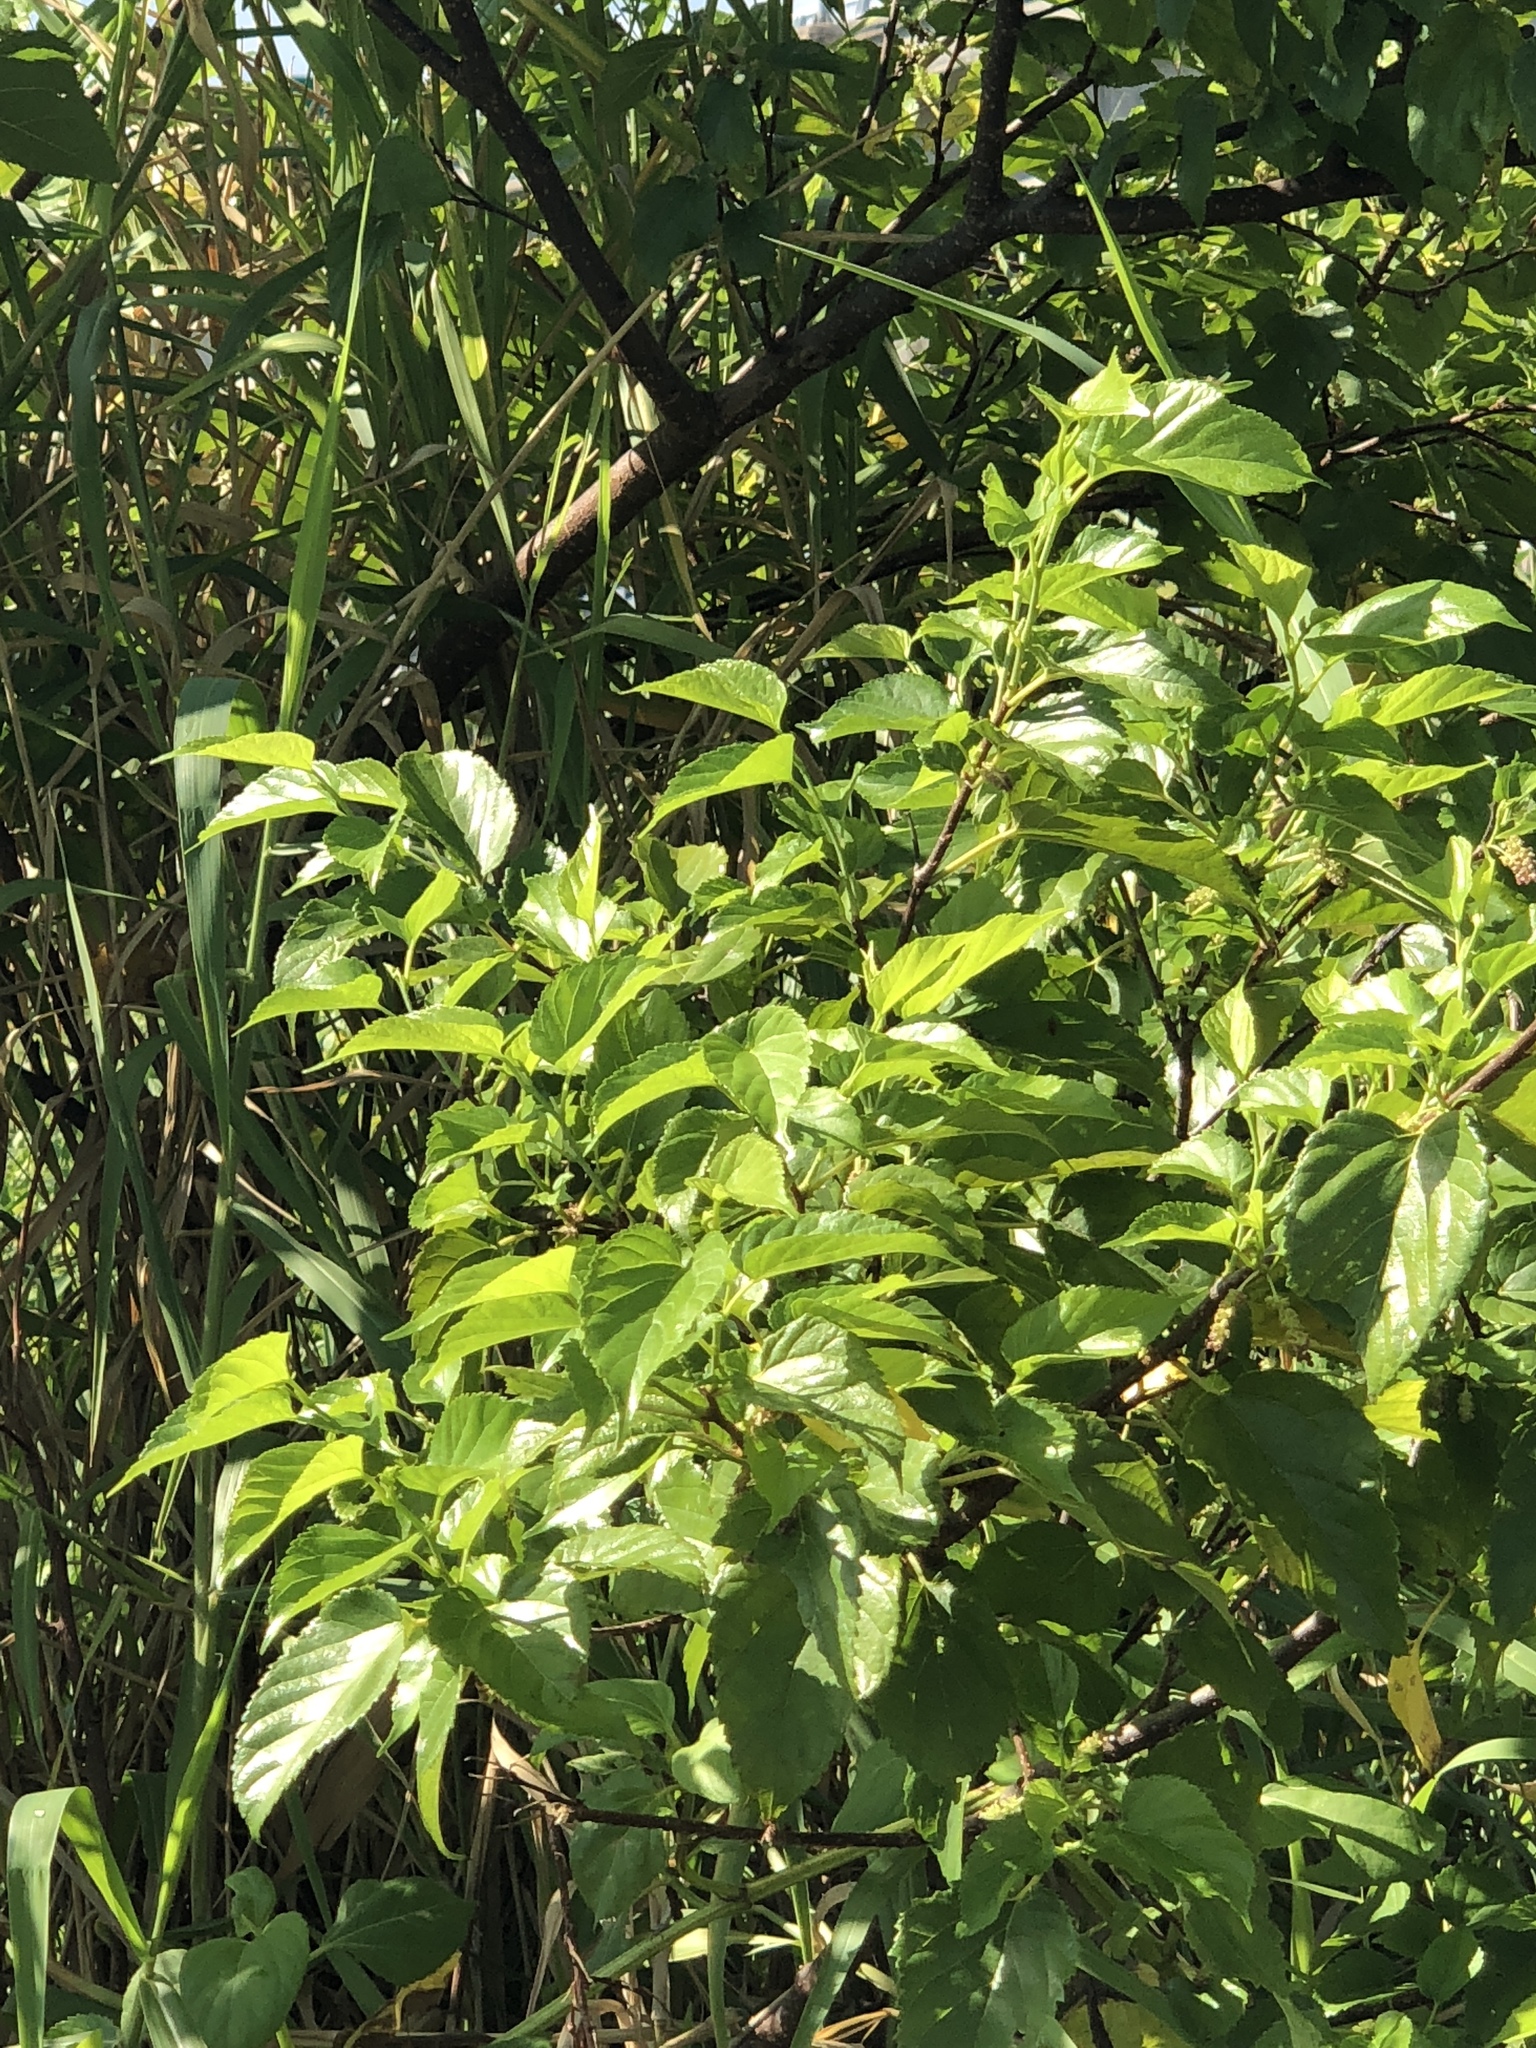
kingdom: Plantae
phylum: Tracheophyta
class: Magnoliopsida
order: Rosales
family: Moraceae
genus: Morus
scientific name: Morus indica
